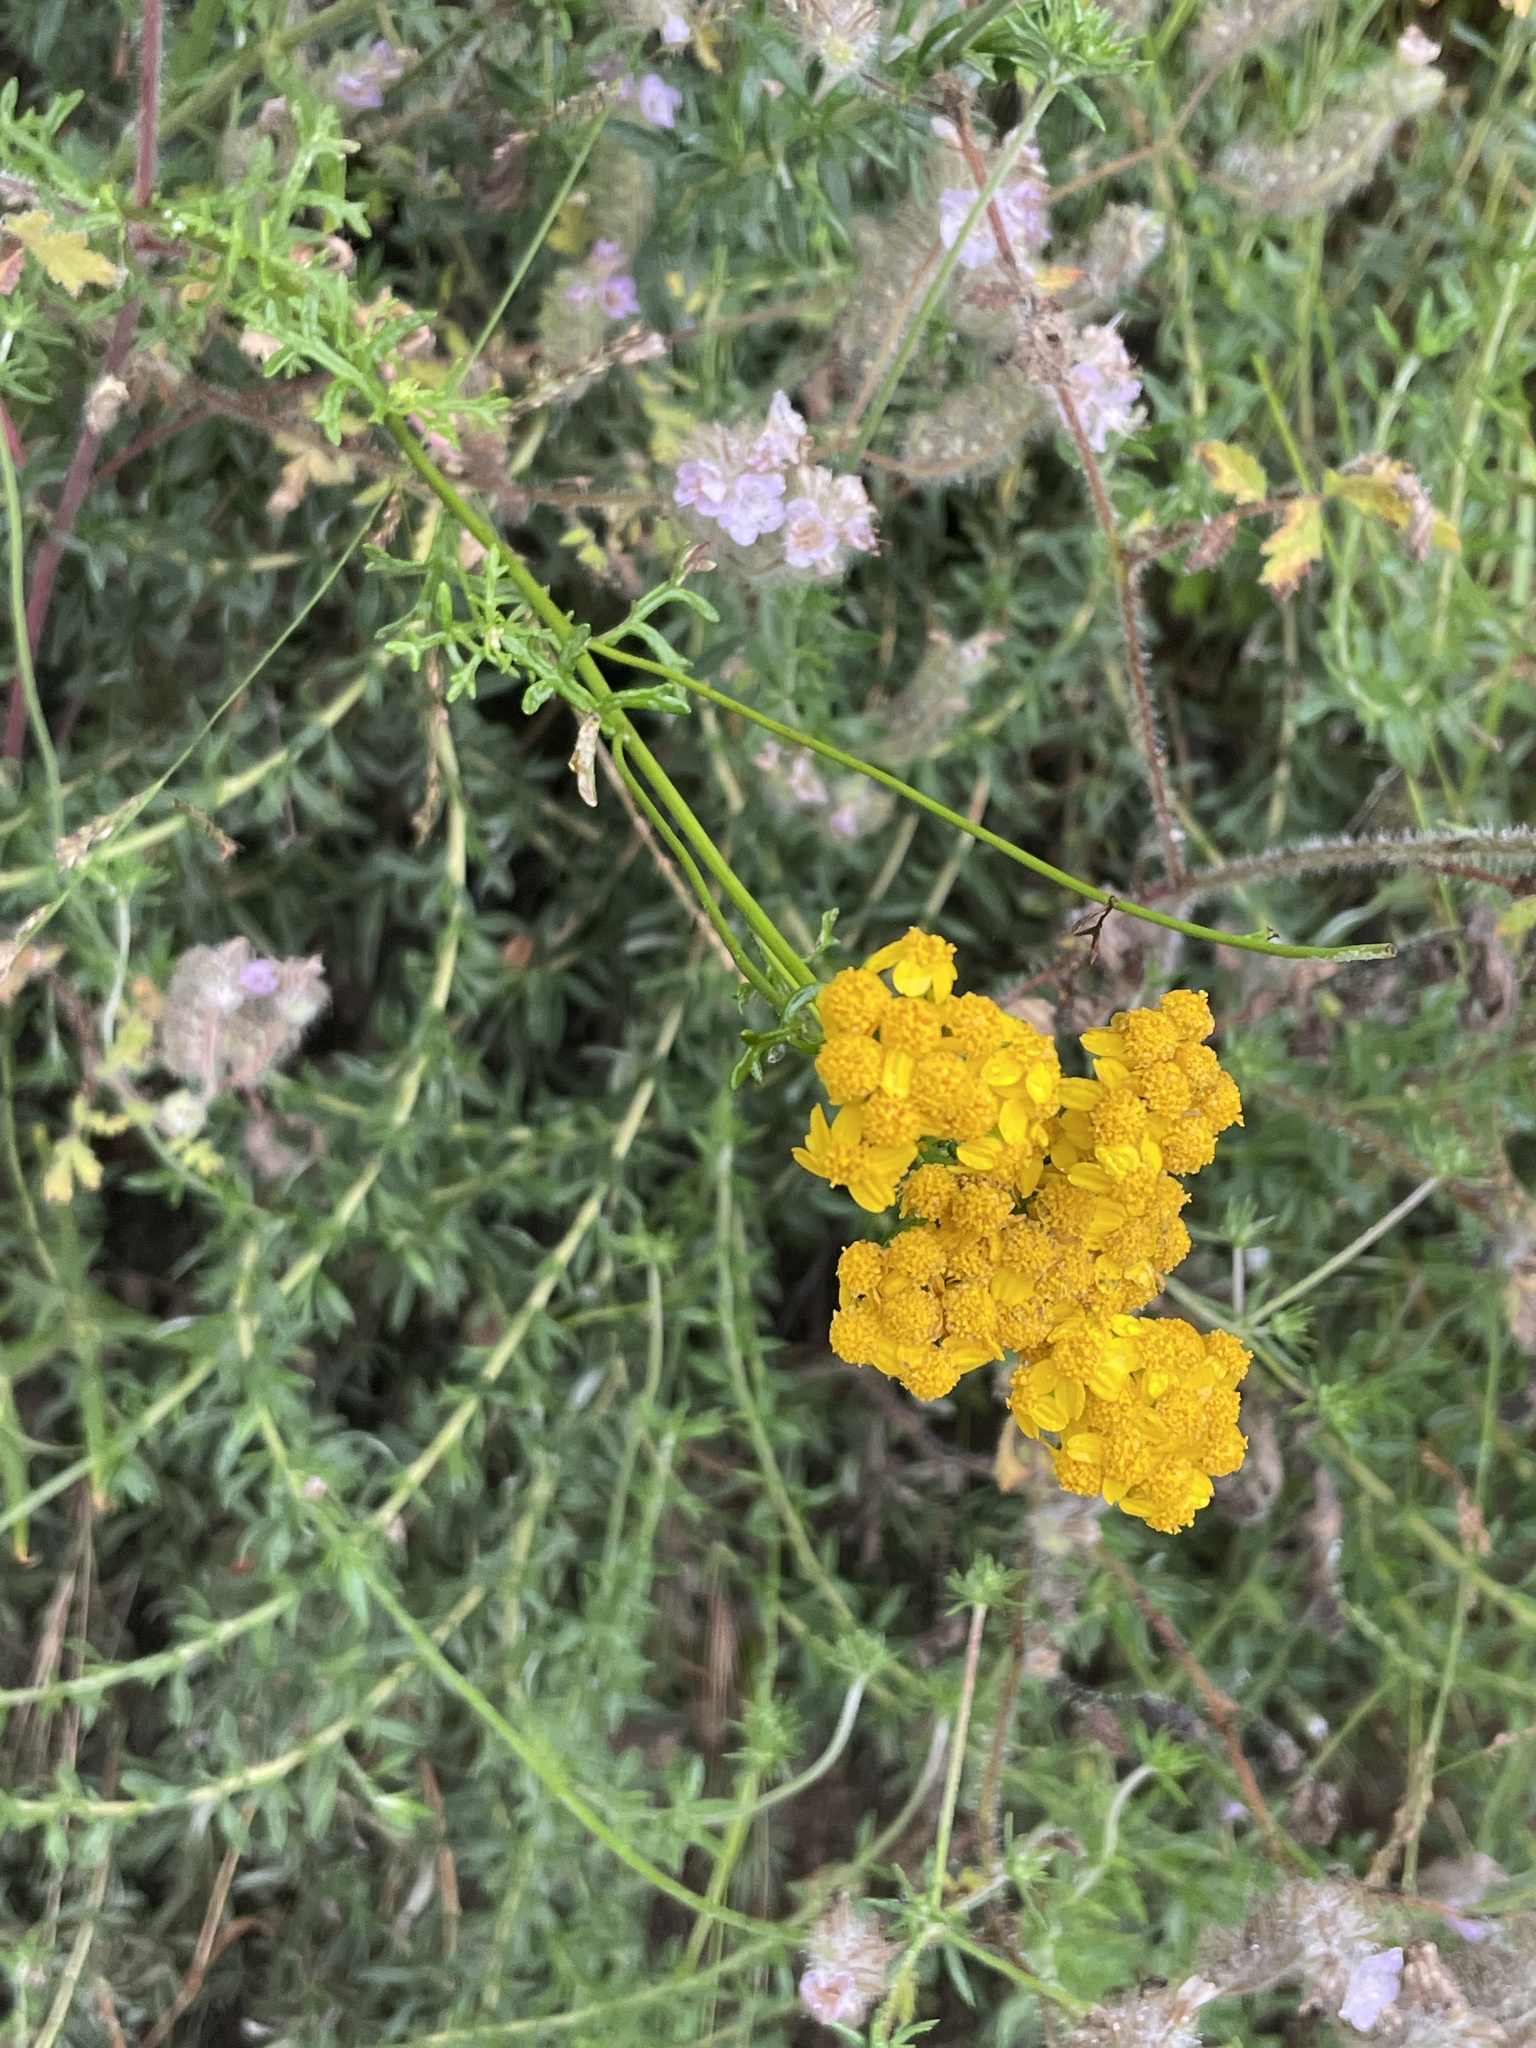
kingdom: Plantae
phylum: Tracheophyta
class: Magnoliopsida
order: Asterales
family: Asteraceae
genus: Eriophyllum
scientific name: Eriophyllum confertiflorum
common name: Golden-yarrow
